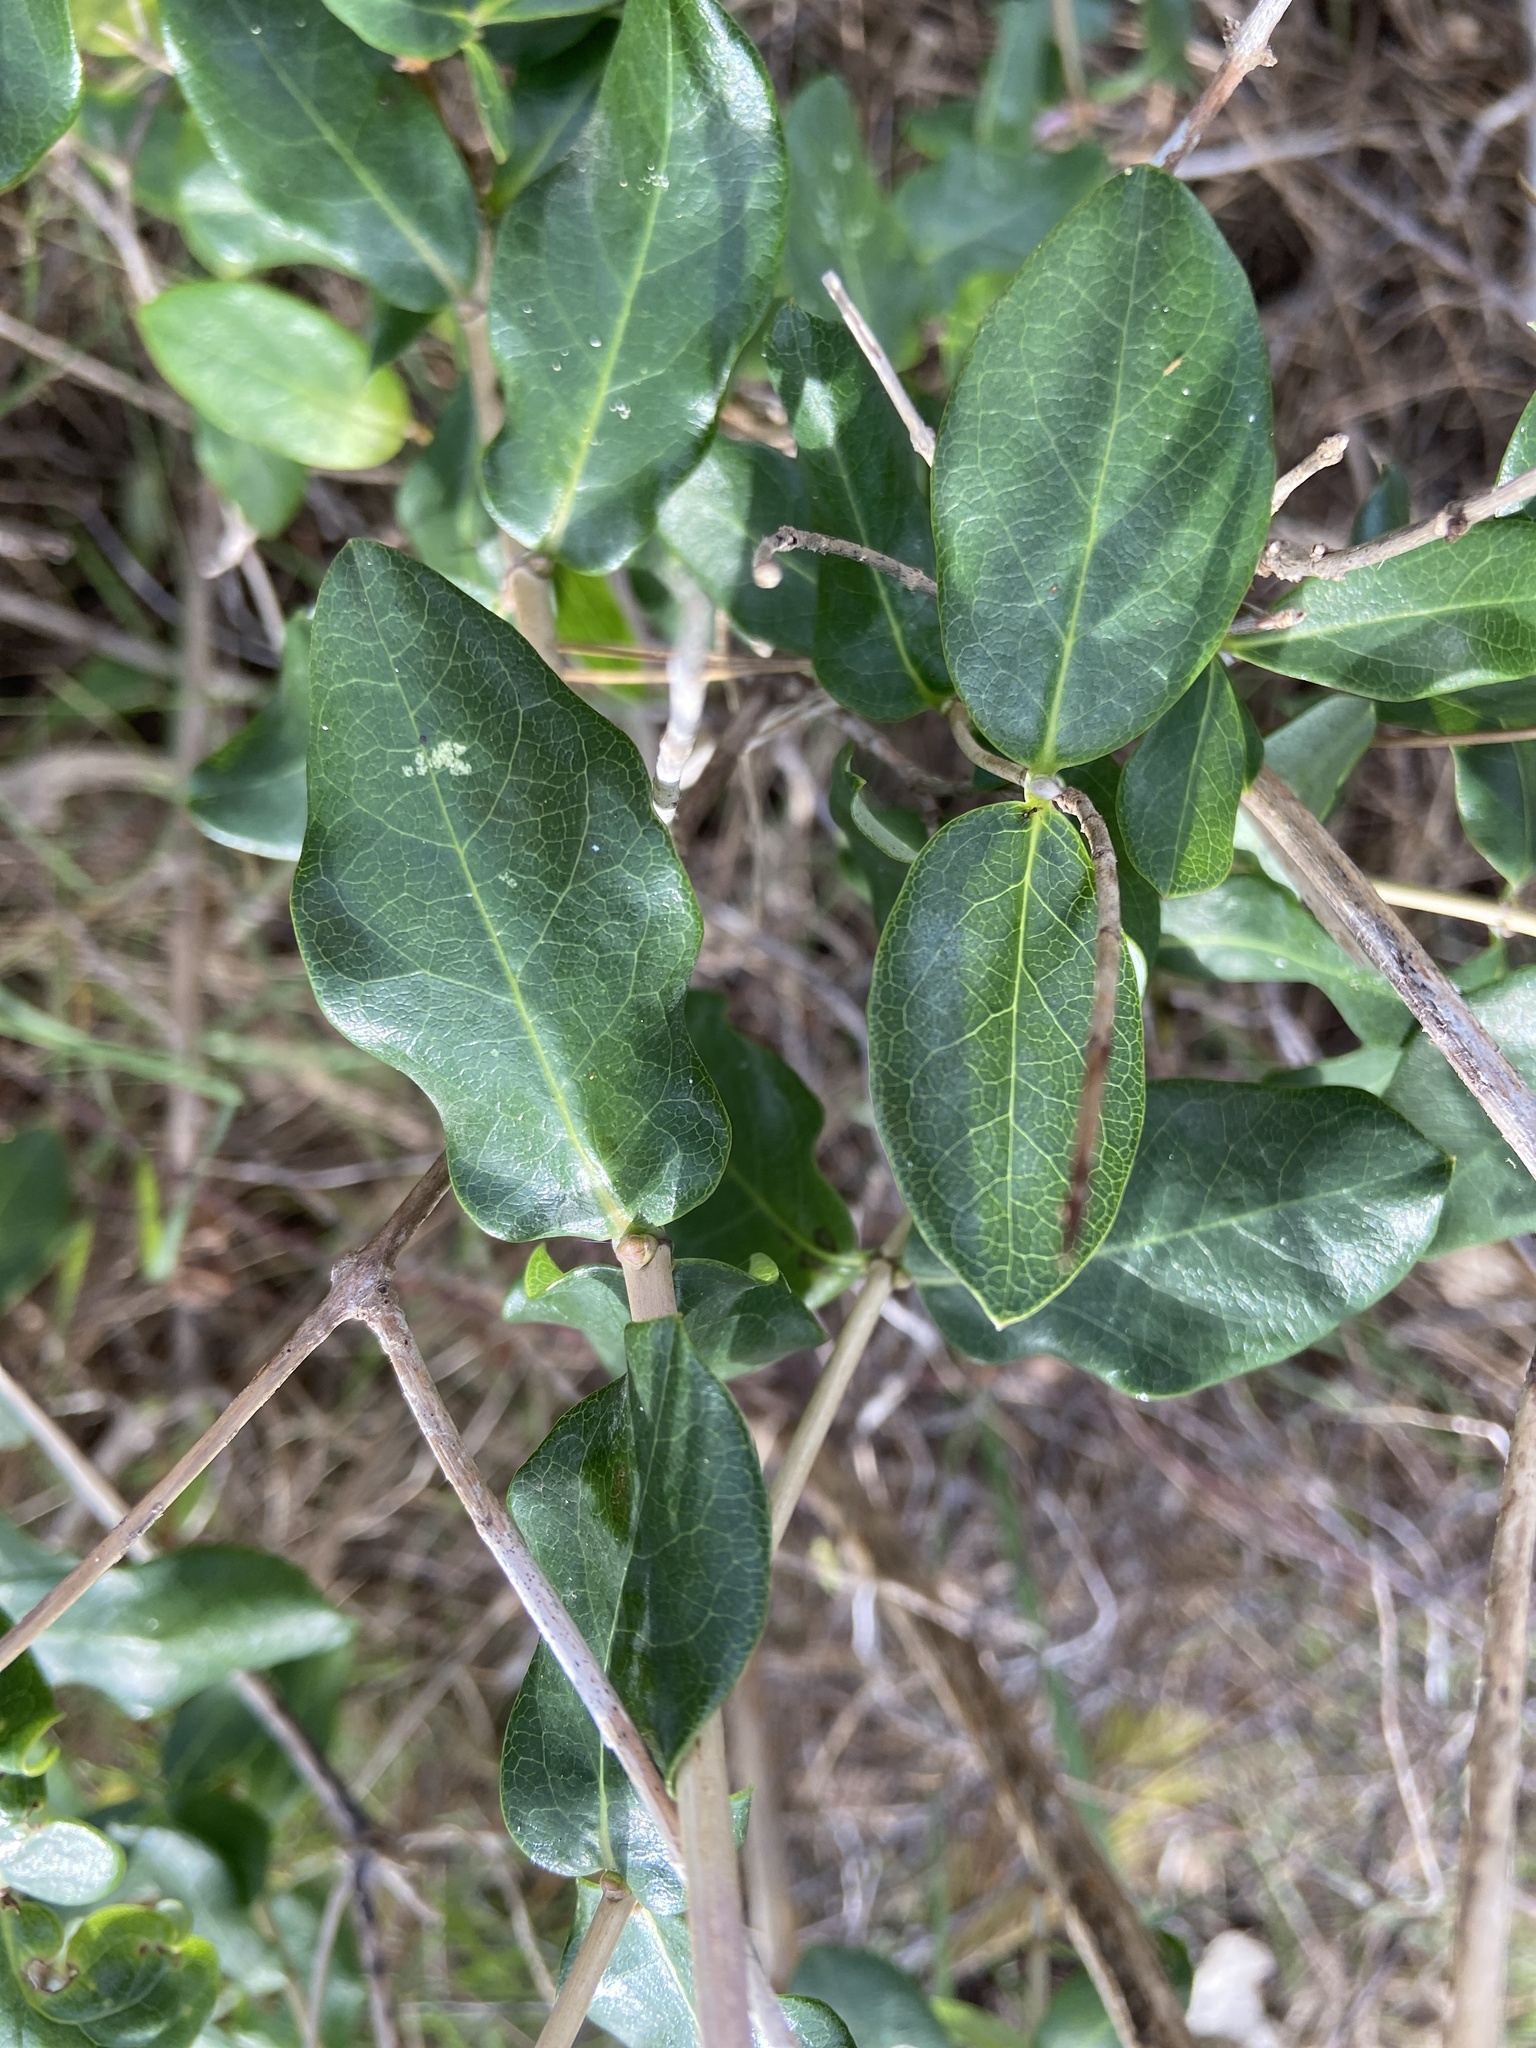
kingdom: Plantae
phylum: Tracheophyta
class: Magnoliopsida
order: Dipsacales
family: Caprifoliaceae
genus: Lonicera
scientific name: Lonicera implexa
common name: Minorca honeysuckle
